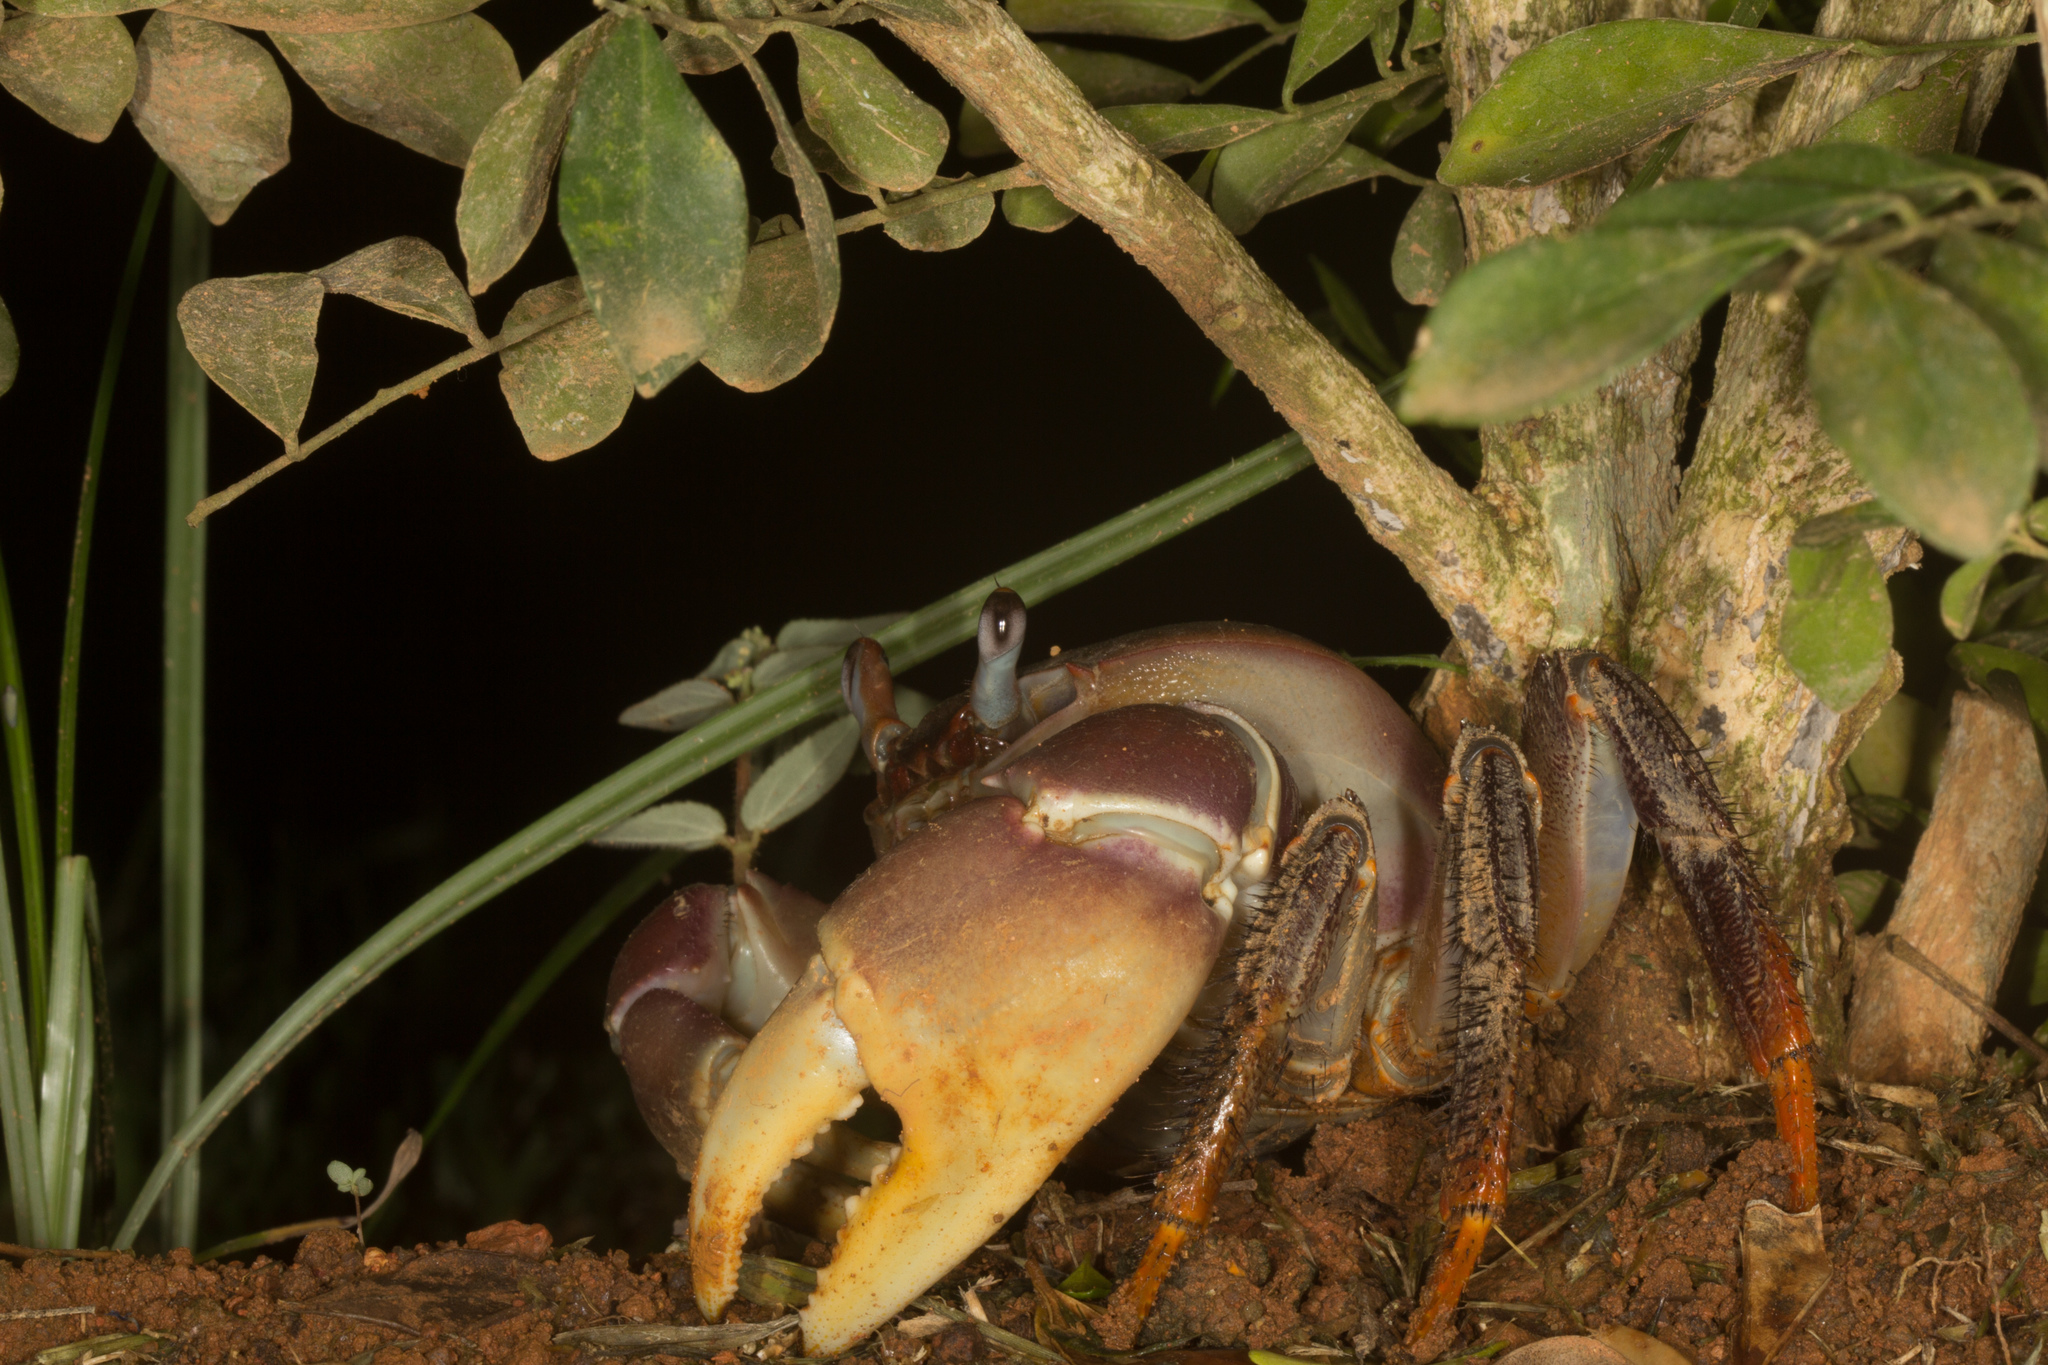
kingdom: Animalia
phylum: Arthropoda
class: Malacostraca
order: Decapoda
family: Gecarcinidae
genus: Cardisoma
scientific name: Cardisoma carnifex
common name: Brown land crab
